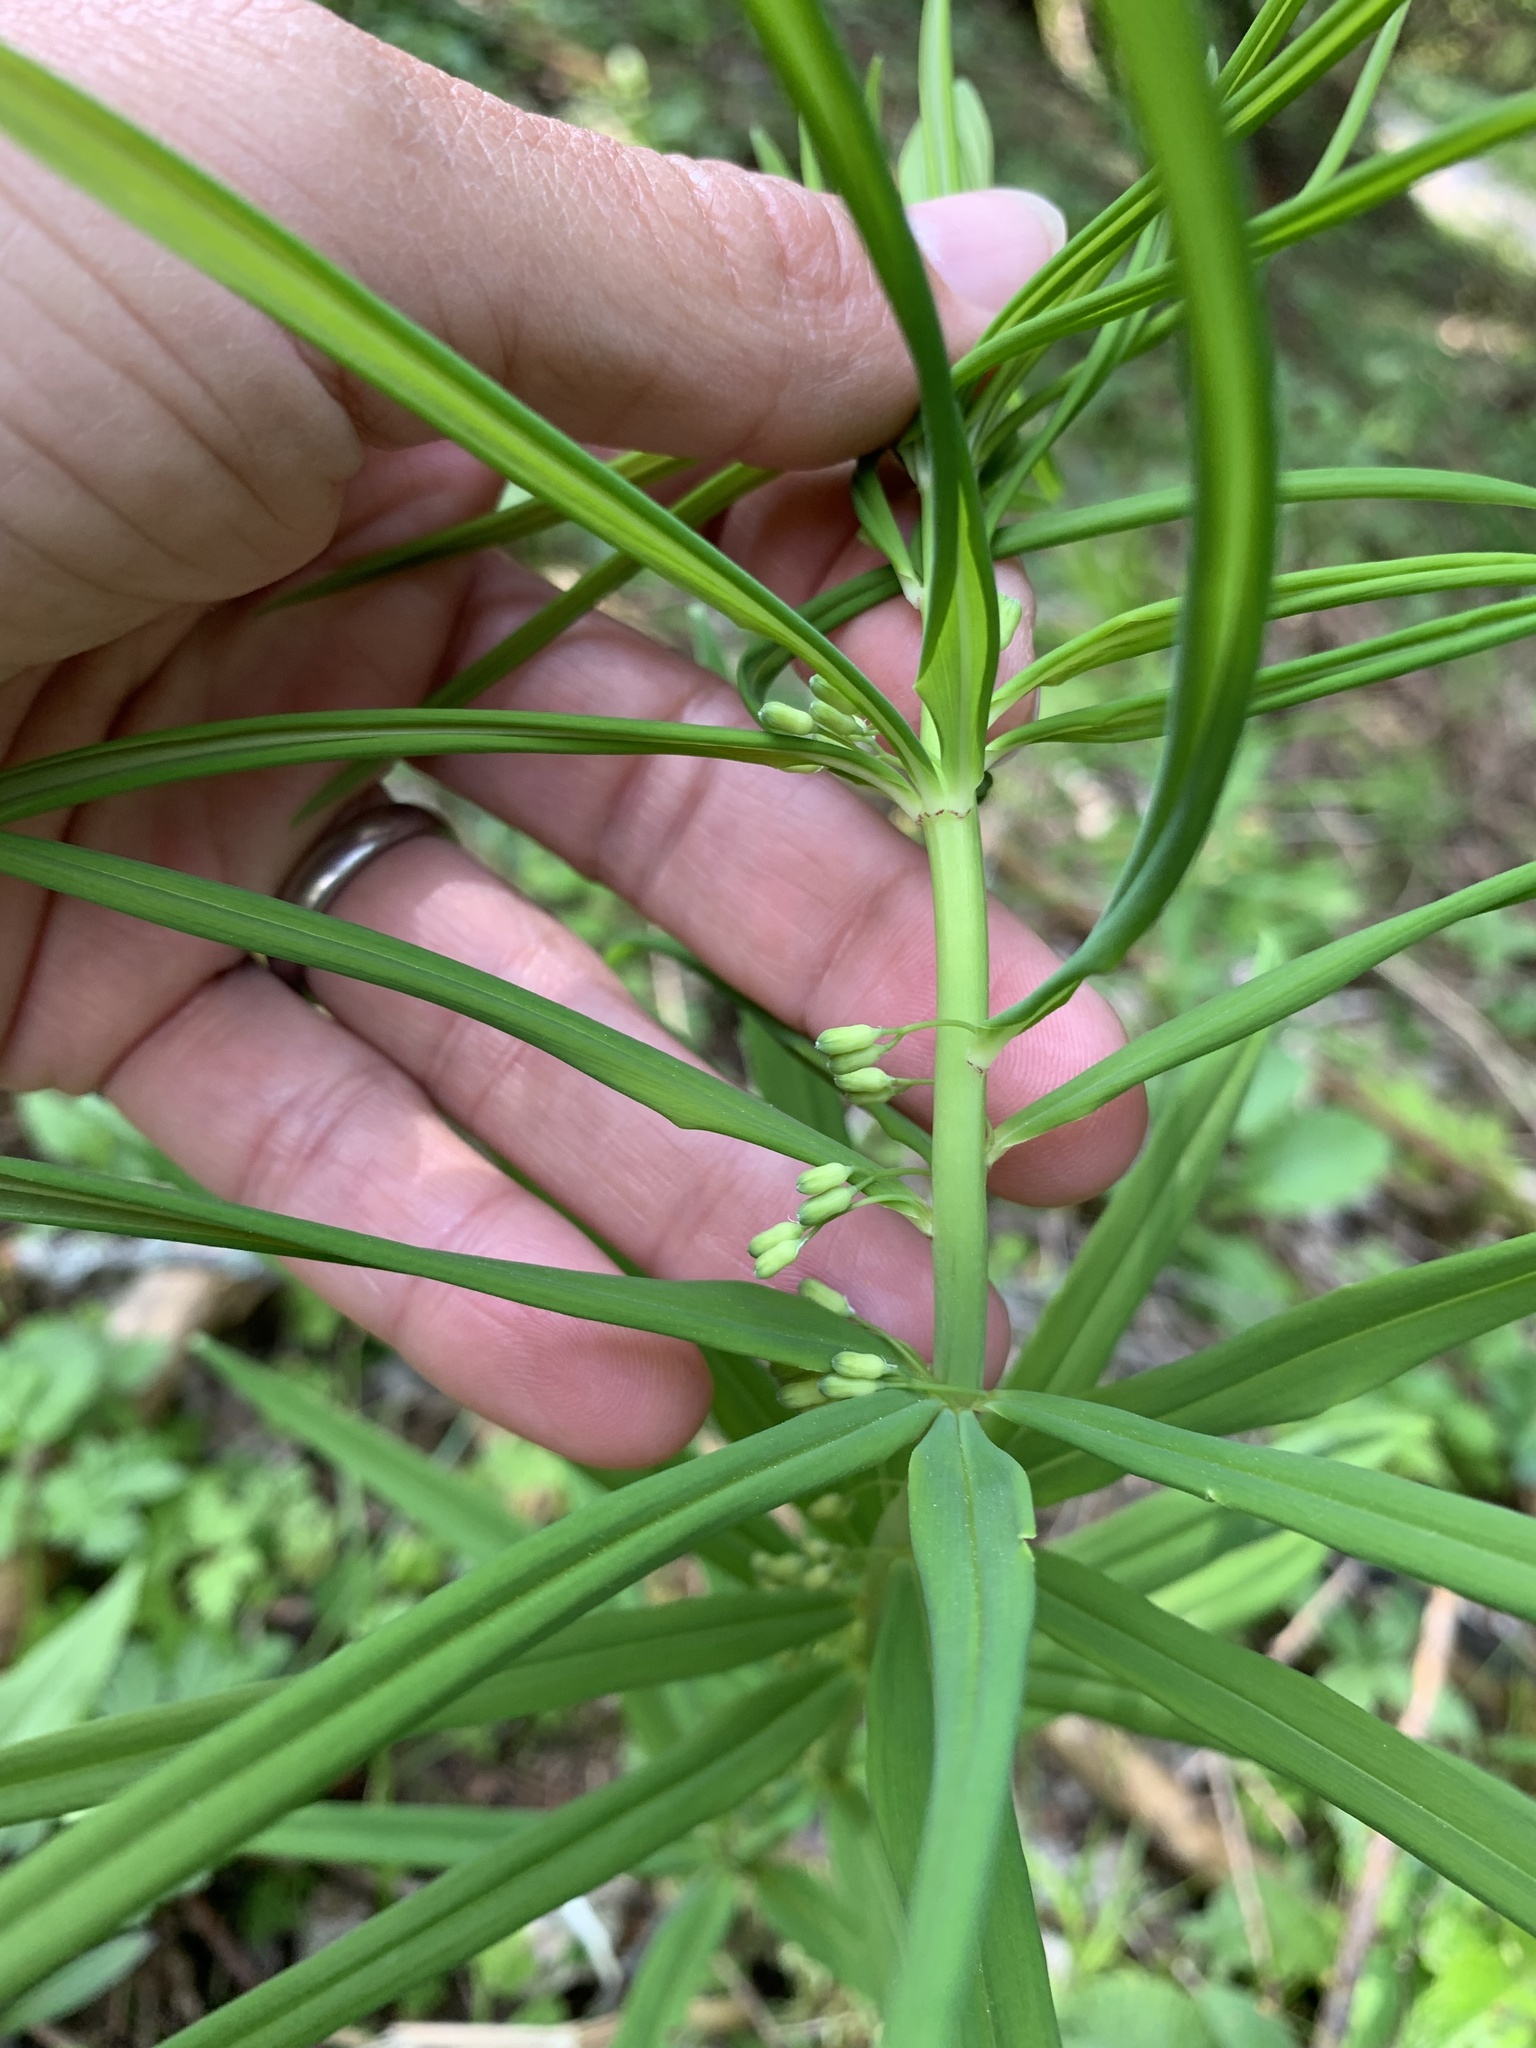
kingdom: Plantae
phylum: Tracheophyta
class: Liliopsida
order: Asparagales
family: Asparagaceae
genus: Polygonatum
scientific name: Polygonatum verticillatum
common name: Whorled solomon's-seal
